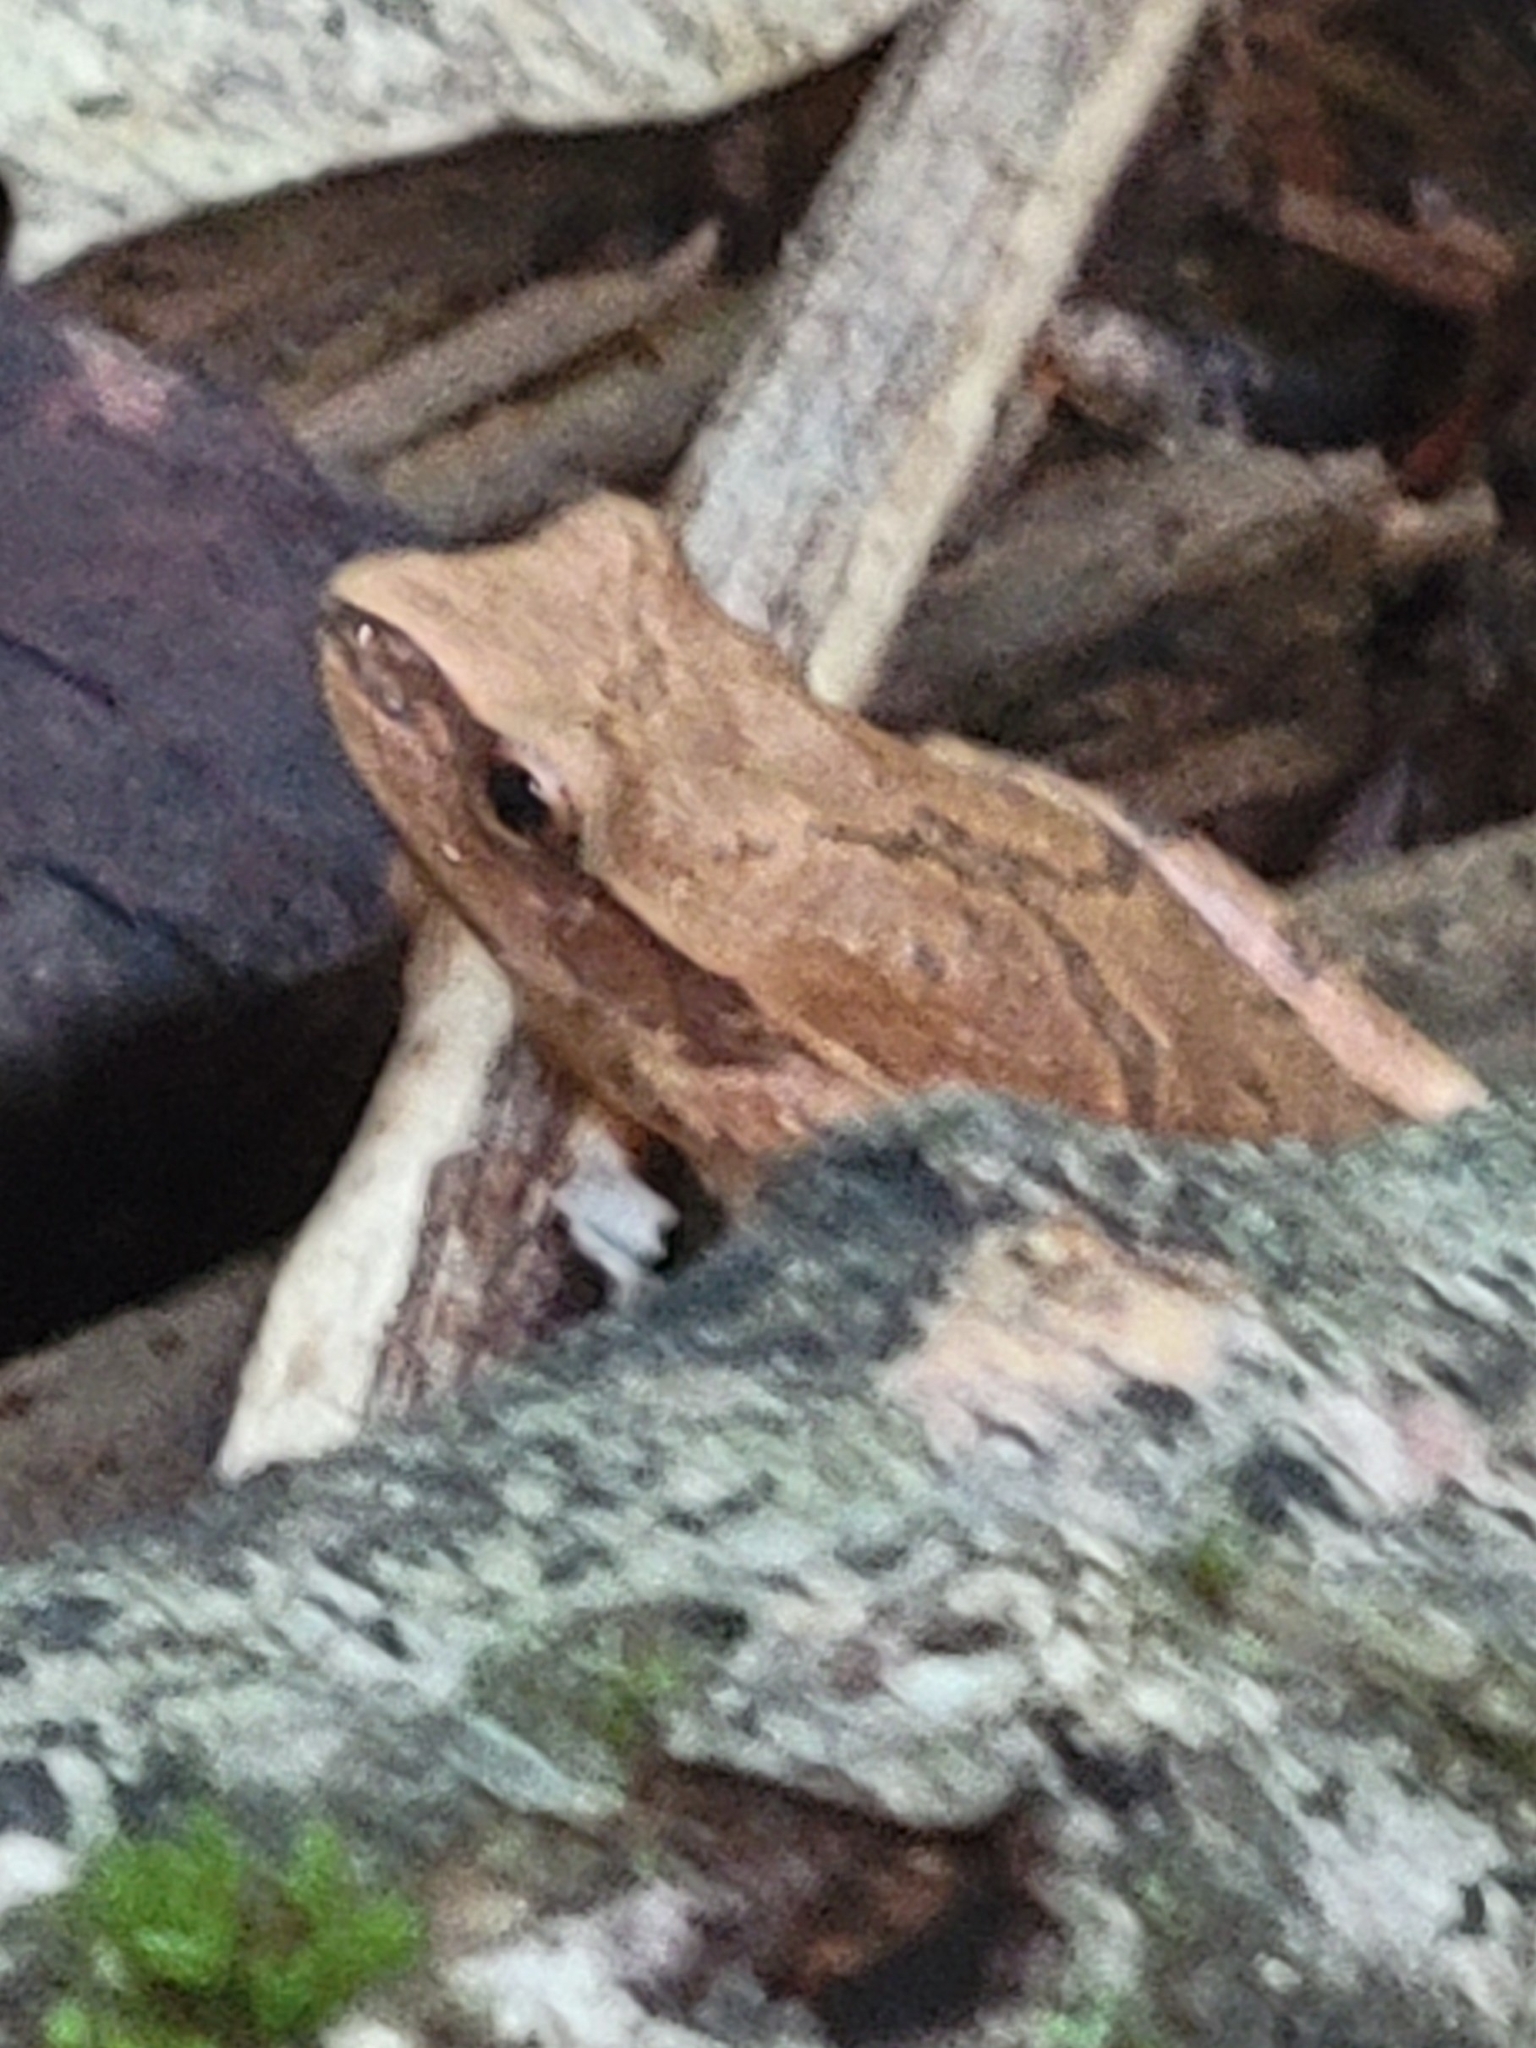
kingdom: Animalia
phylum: Chordata
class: Amphibia
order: Anura
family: Hylidae
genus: Pseudacris
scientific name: Pseudacris crucifer
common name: Spring peeper
